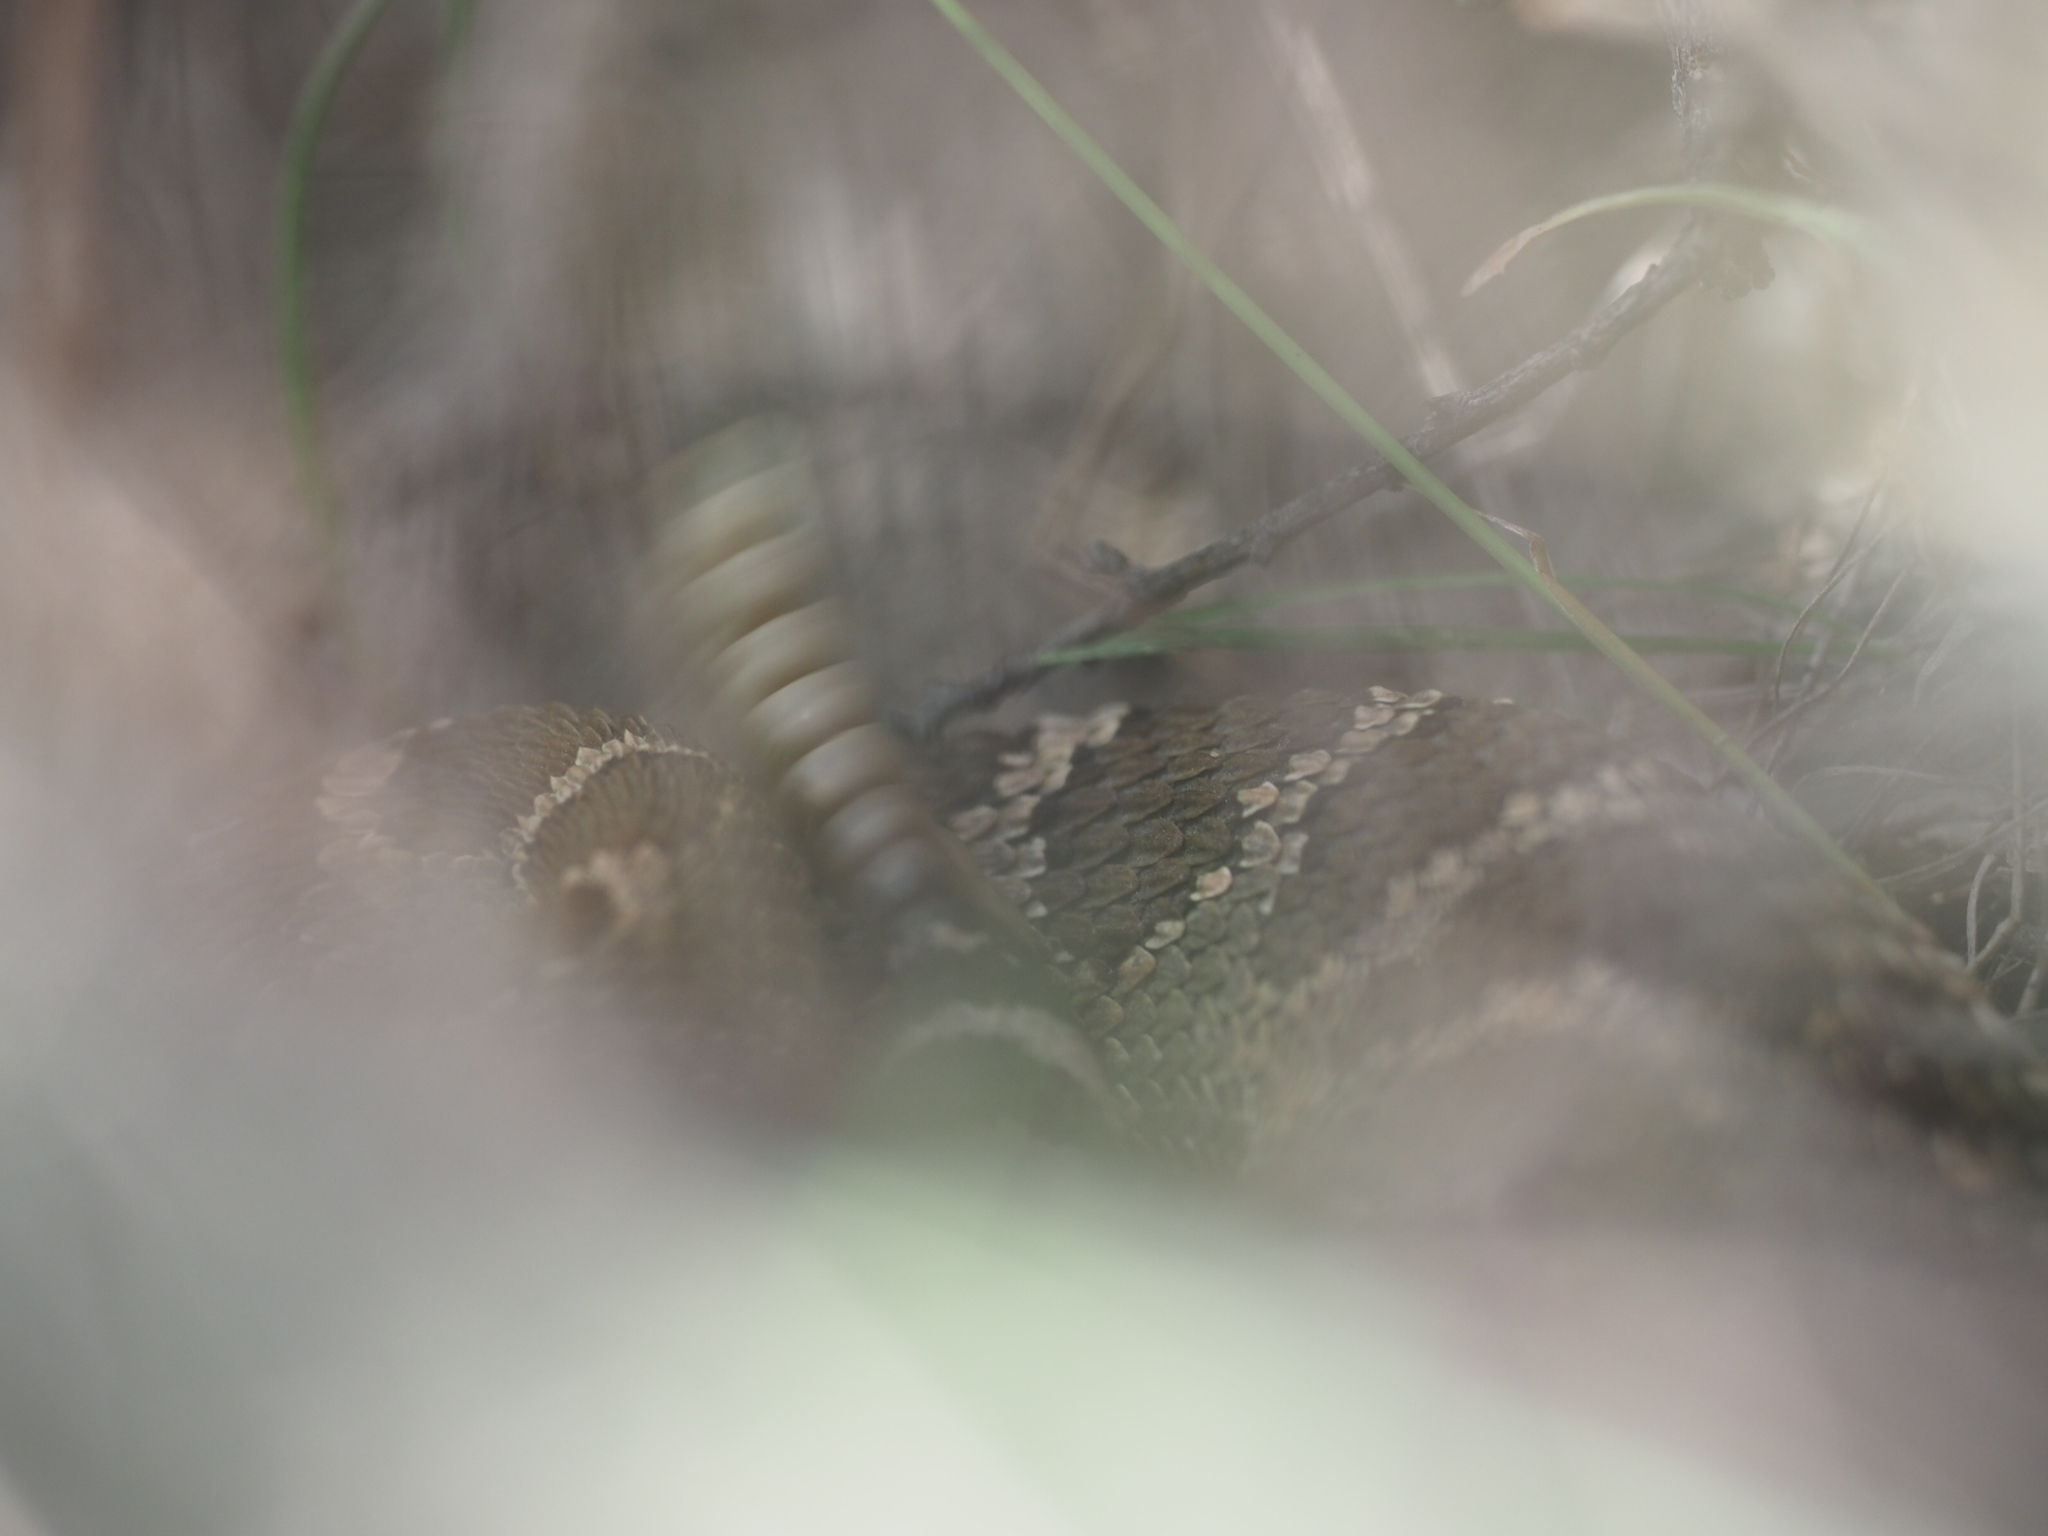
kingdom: Animalia
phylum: Chordata
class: Squamata
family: Viperidae
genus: Crotalus
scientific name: Crotalus oreganus
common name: Abyssus
